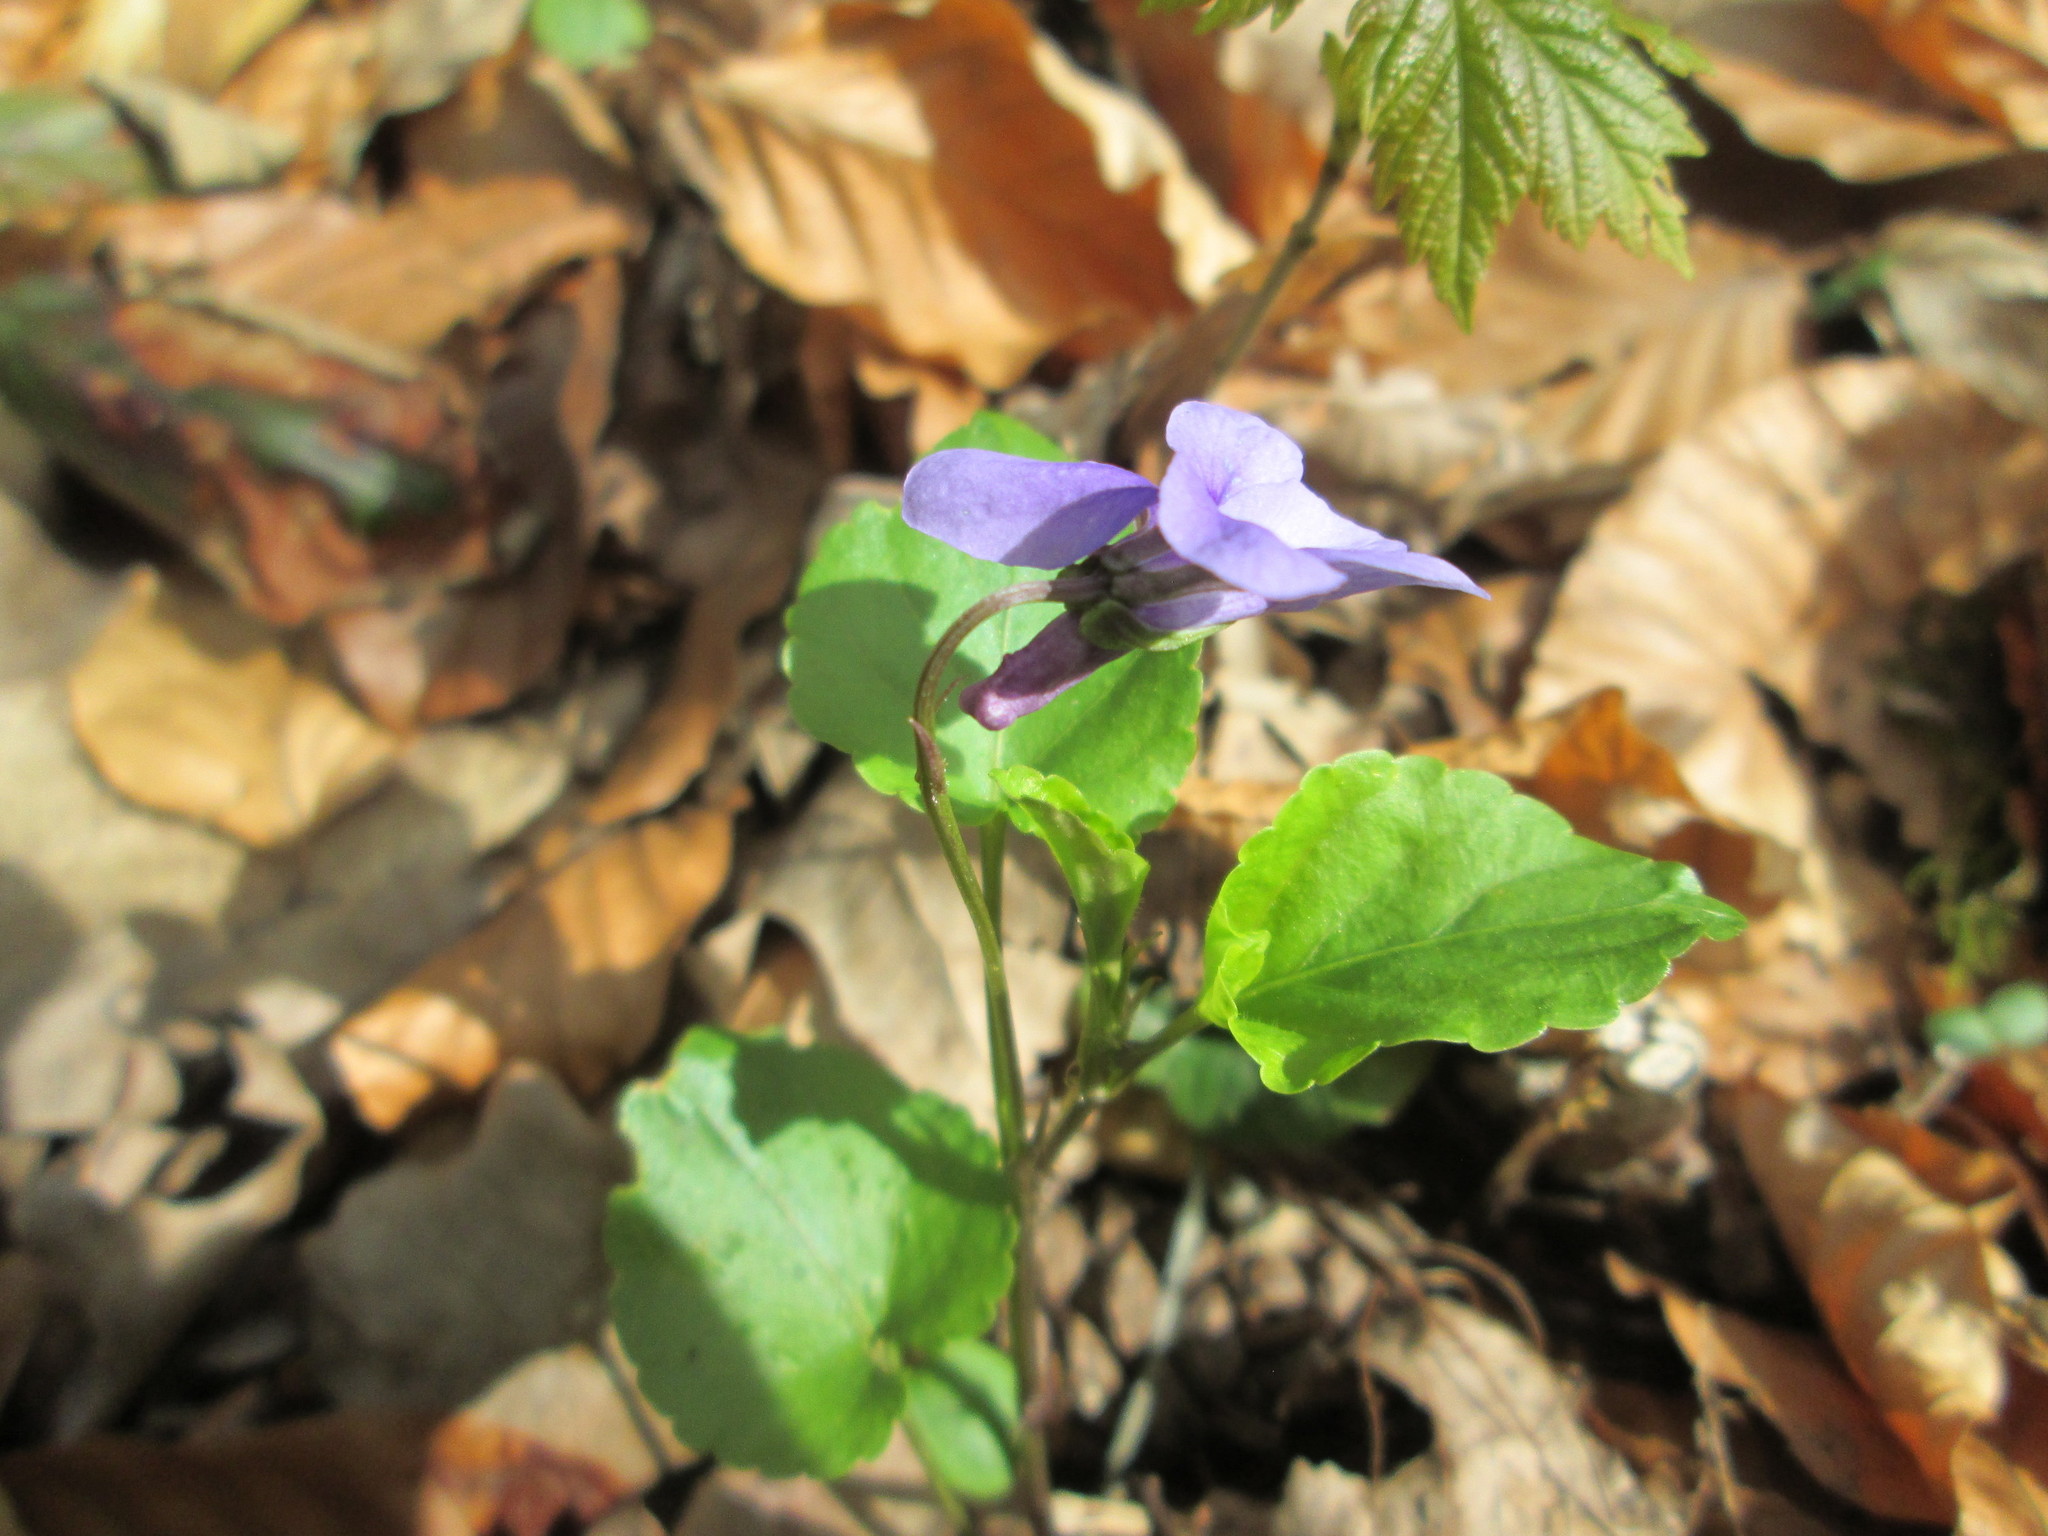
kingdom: Plantae
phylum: Tracheophyta
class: Magnoliopsida
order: Malpighiales
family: Violaceae
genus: Viola
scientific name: Viola reichenbachiana
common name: Early dog-violet
